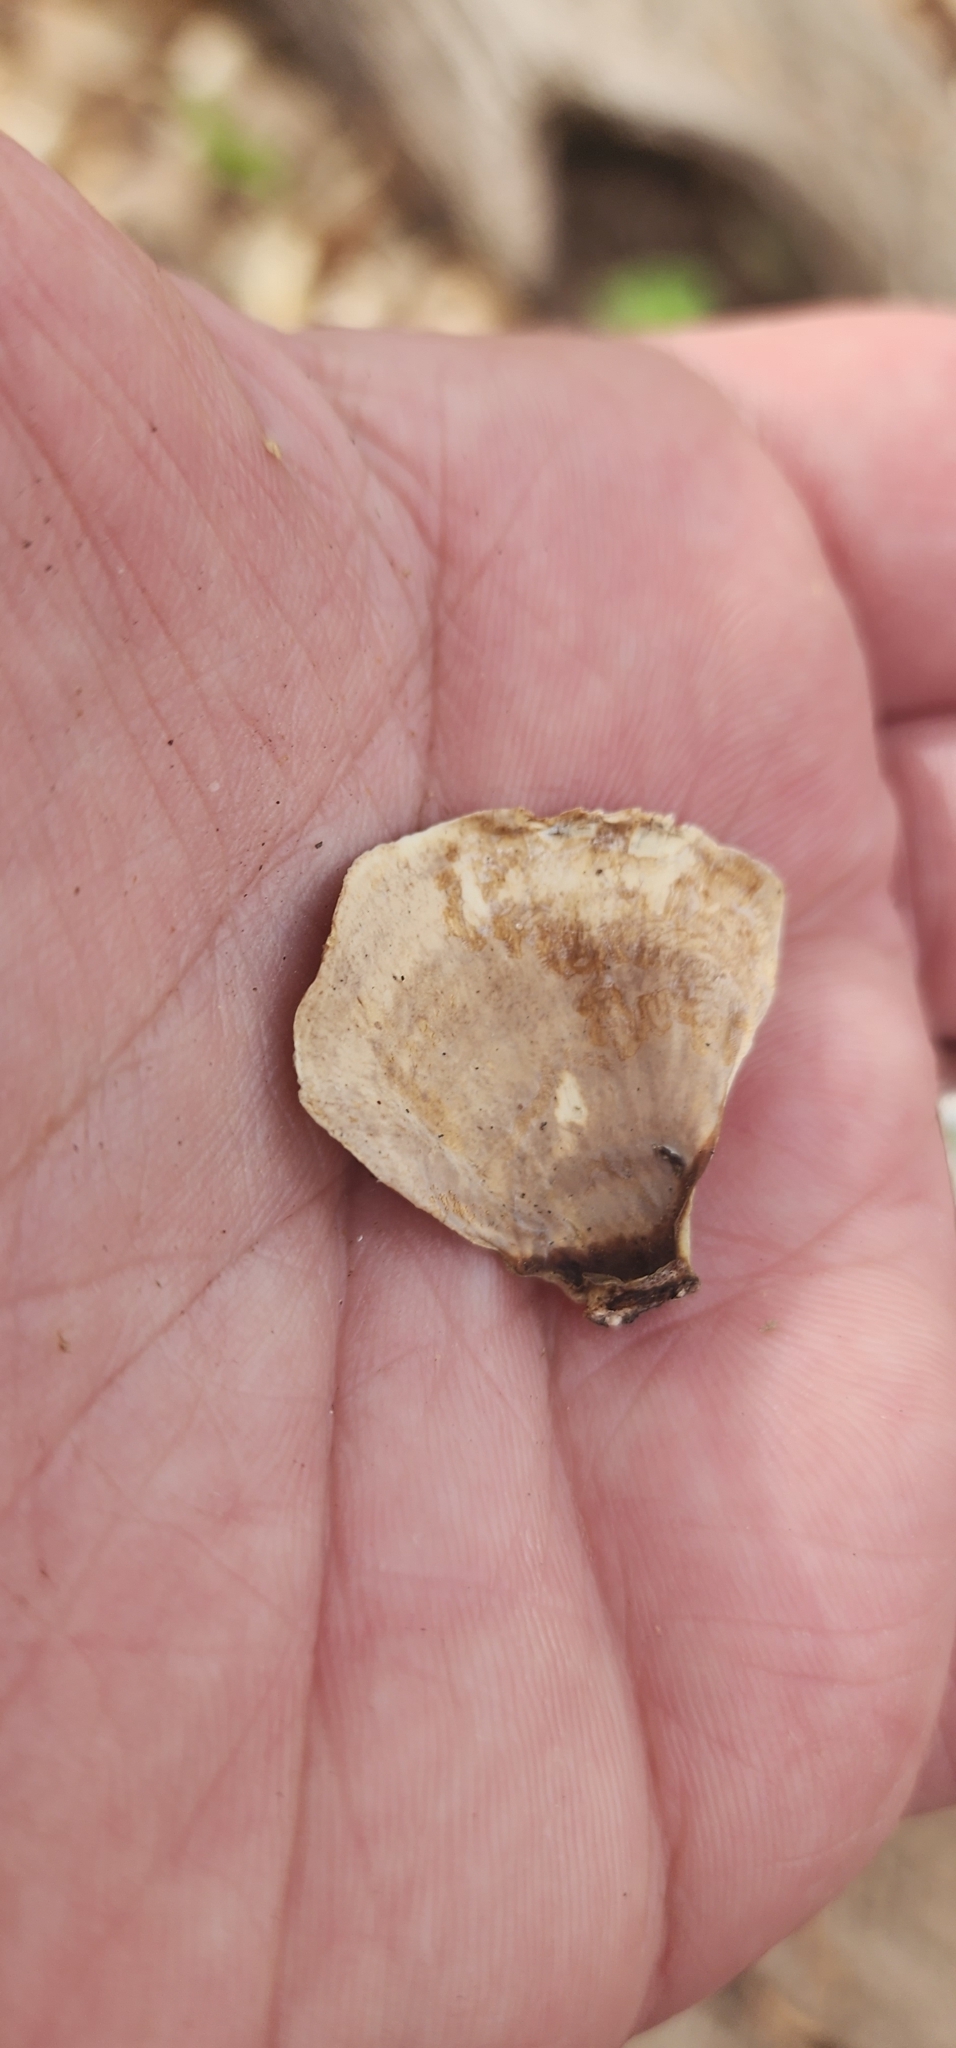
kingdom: Fungi
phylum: Basidiomycota
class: Agaricomycetes
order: Russulales
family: Stereaceae
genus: Stereum
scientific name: Stereum lobatum
